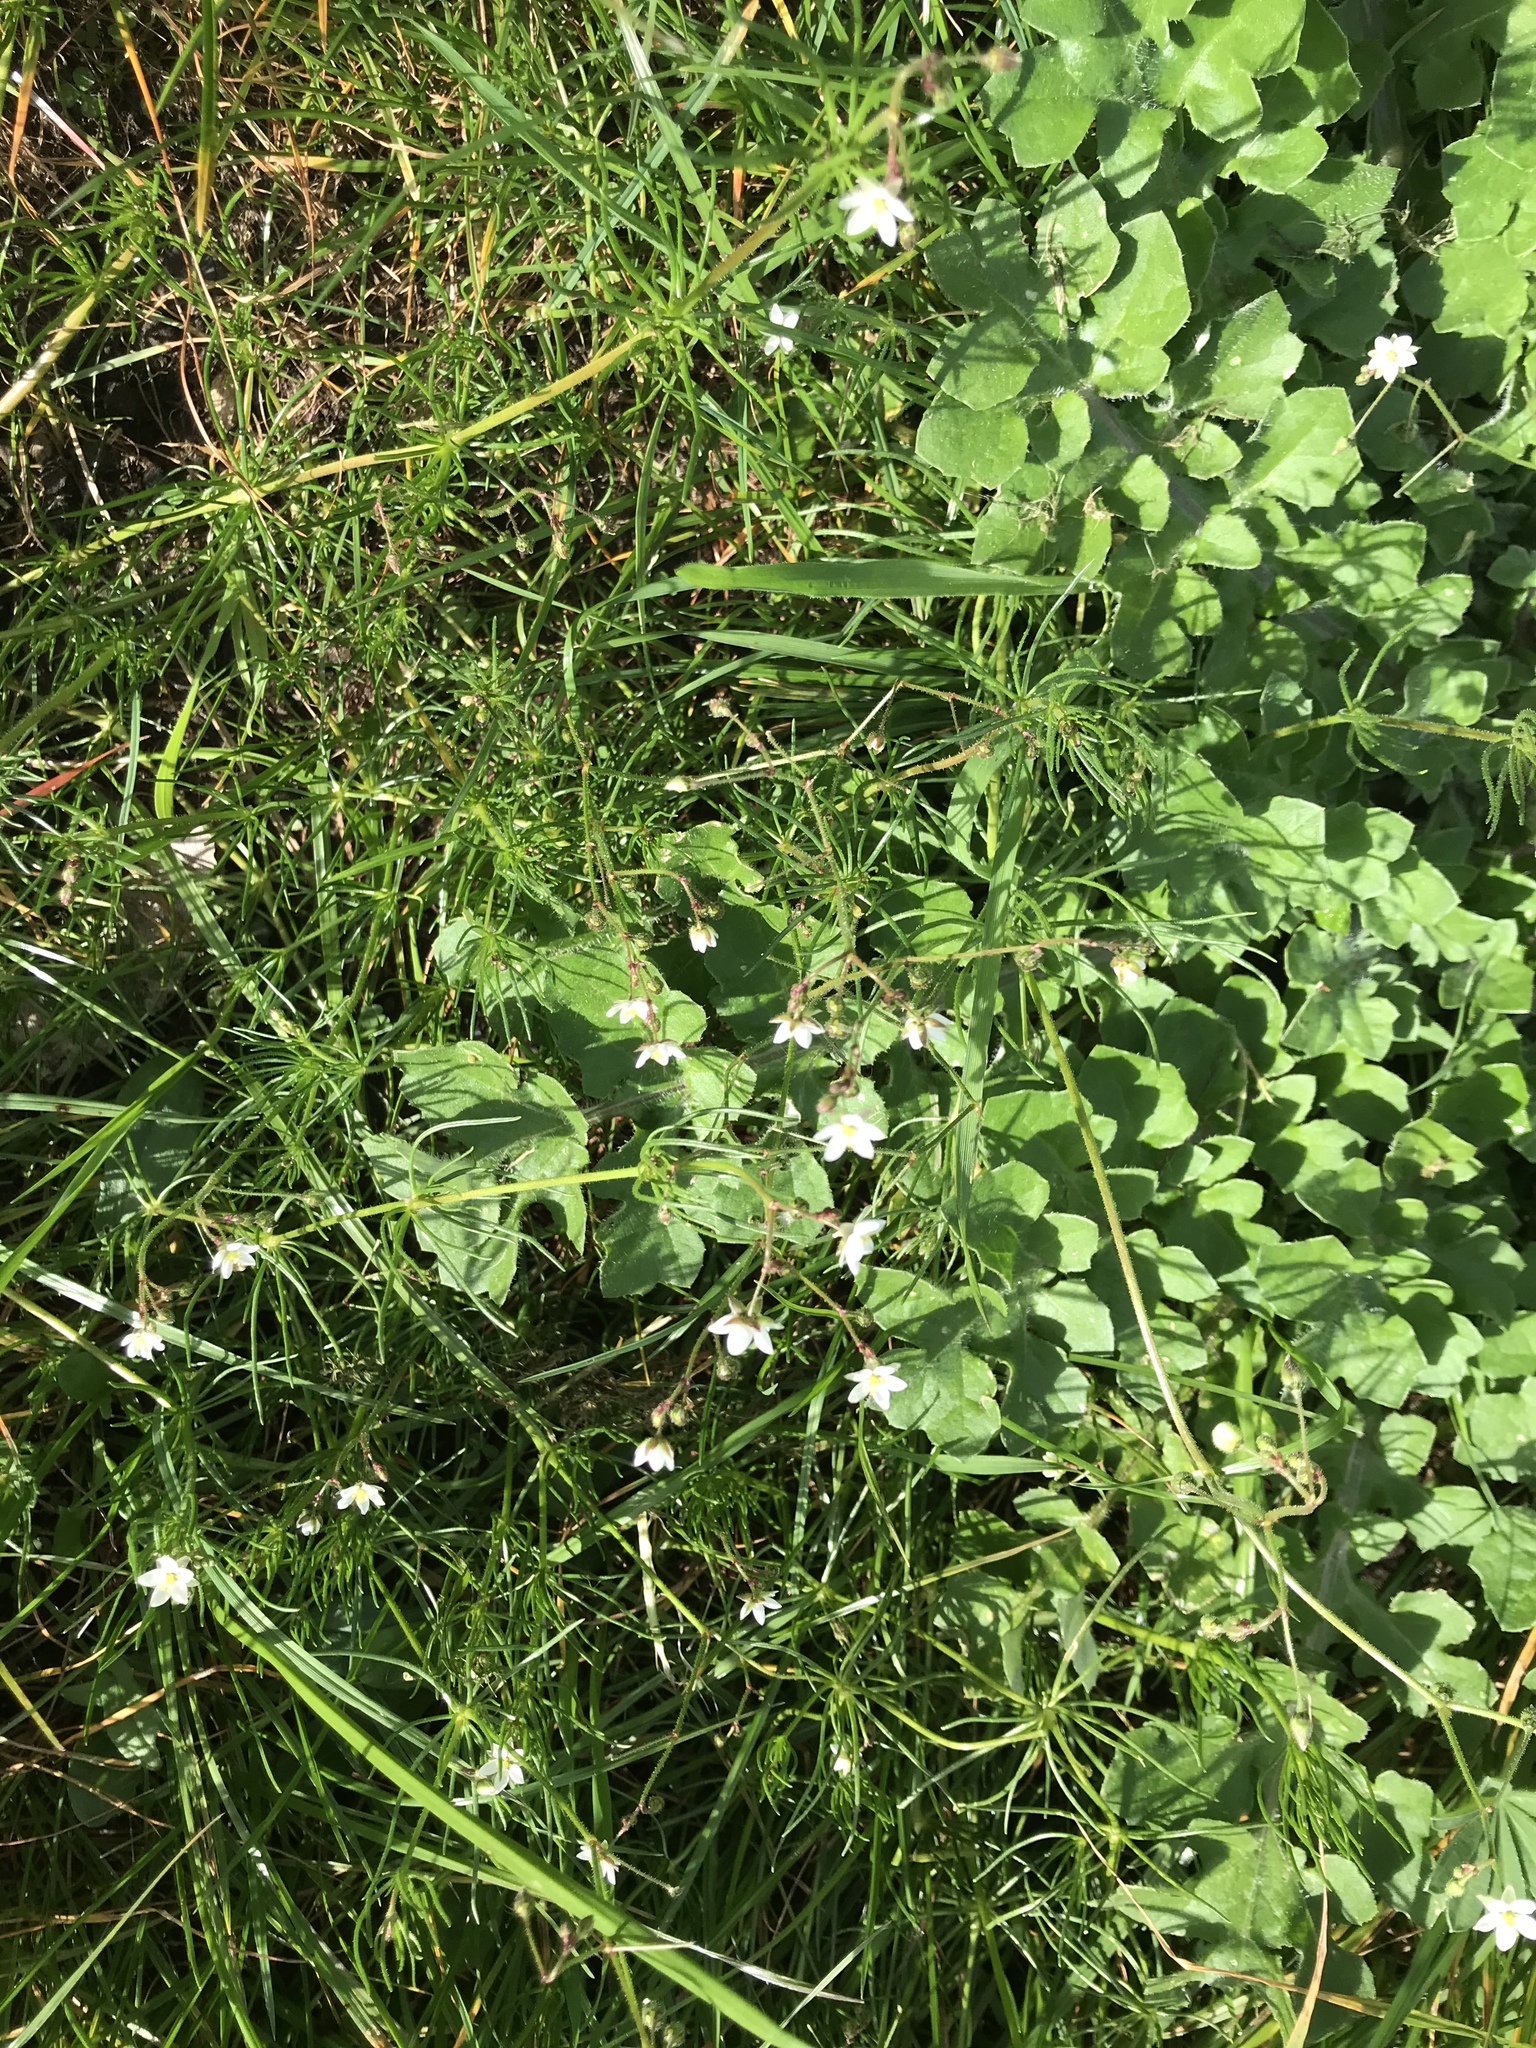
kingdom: Plantae
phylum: Tracheophyta
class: Magnoliopsida
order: Caryophyllales
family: Caryophyllaceae
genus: Spergula
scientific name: Spergula arvensis
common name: Corn spurrey
